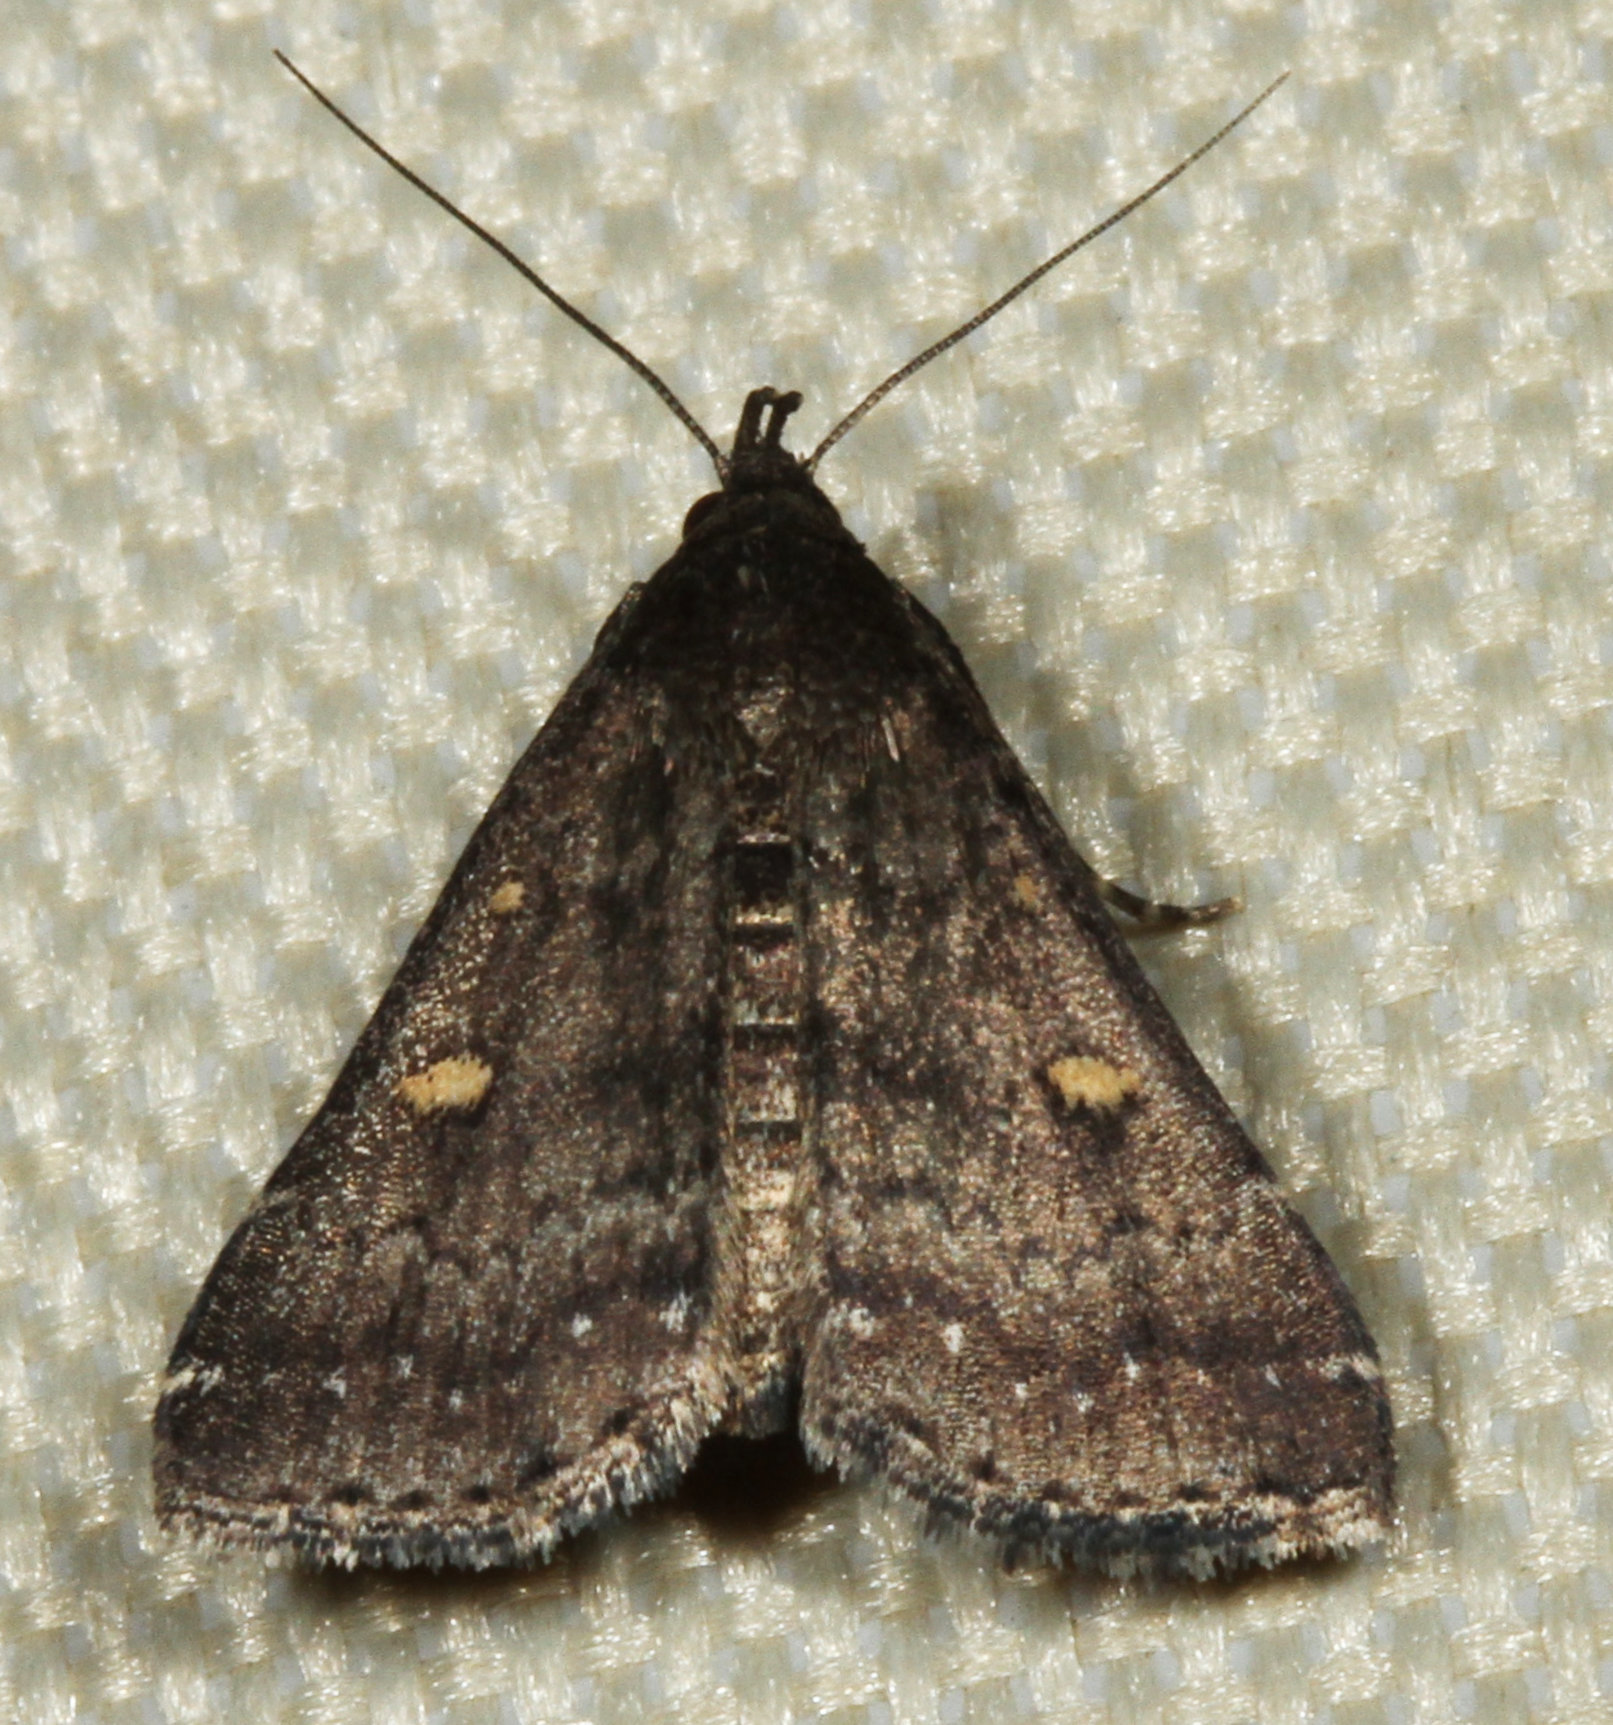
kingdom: Animalia
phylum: Arthropoda
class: Insecta
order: Lepidoptera
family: Erebidae
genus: Tetanolita
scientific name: Tetanolita mynesalis
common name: Smoky tetanolita moth
